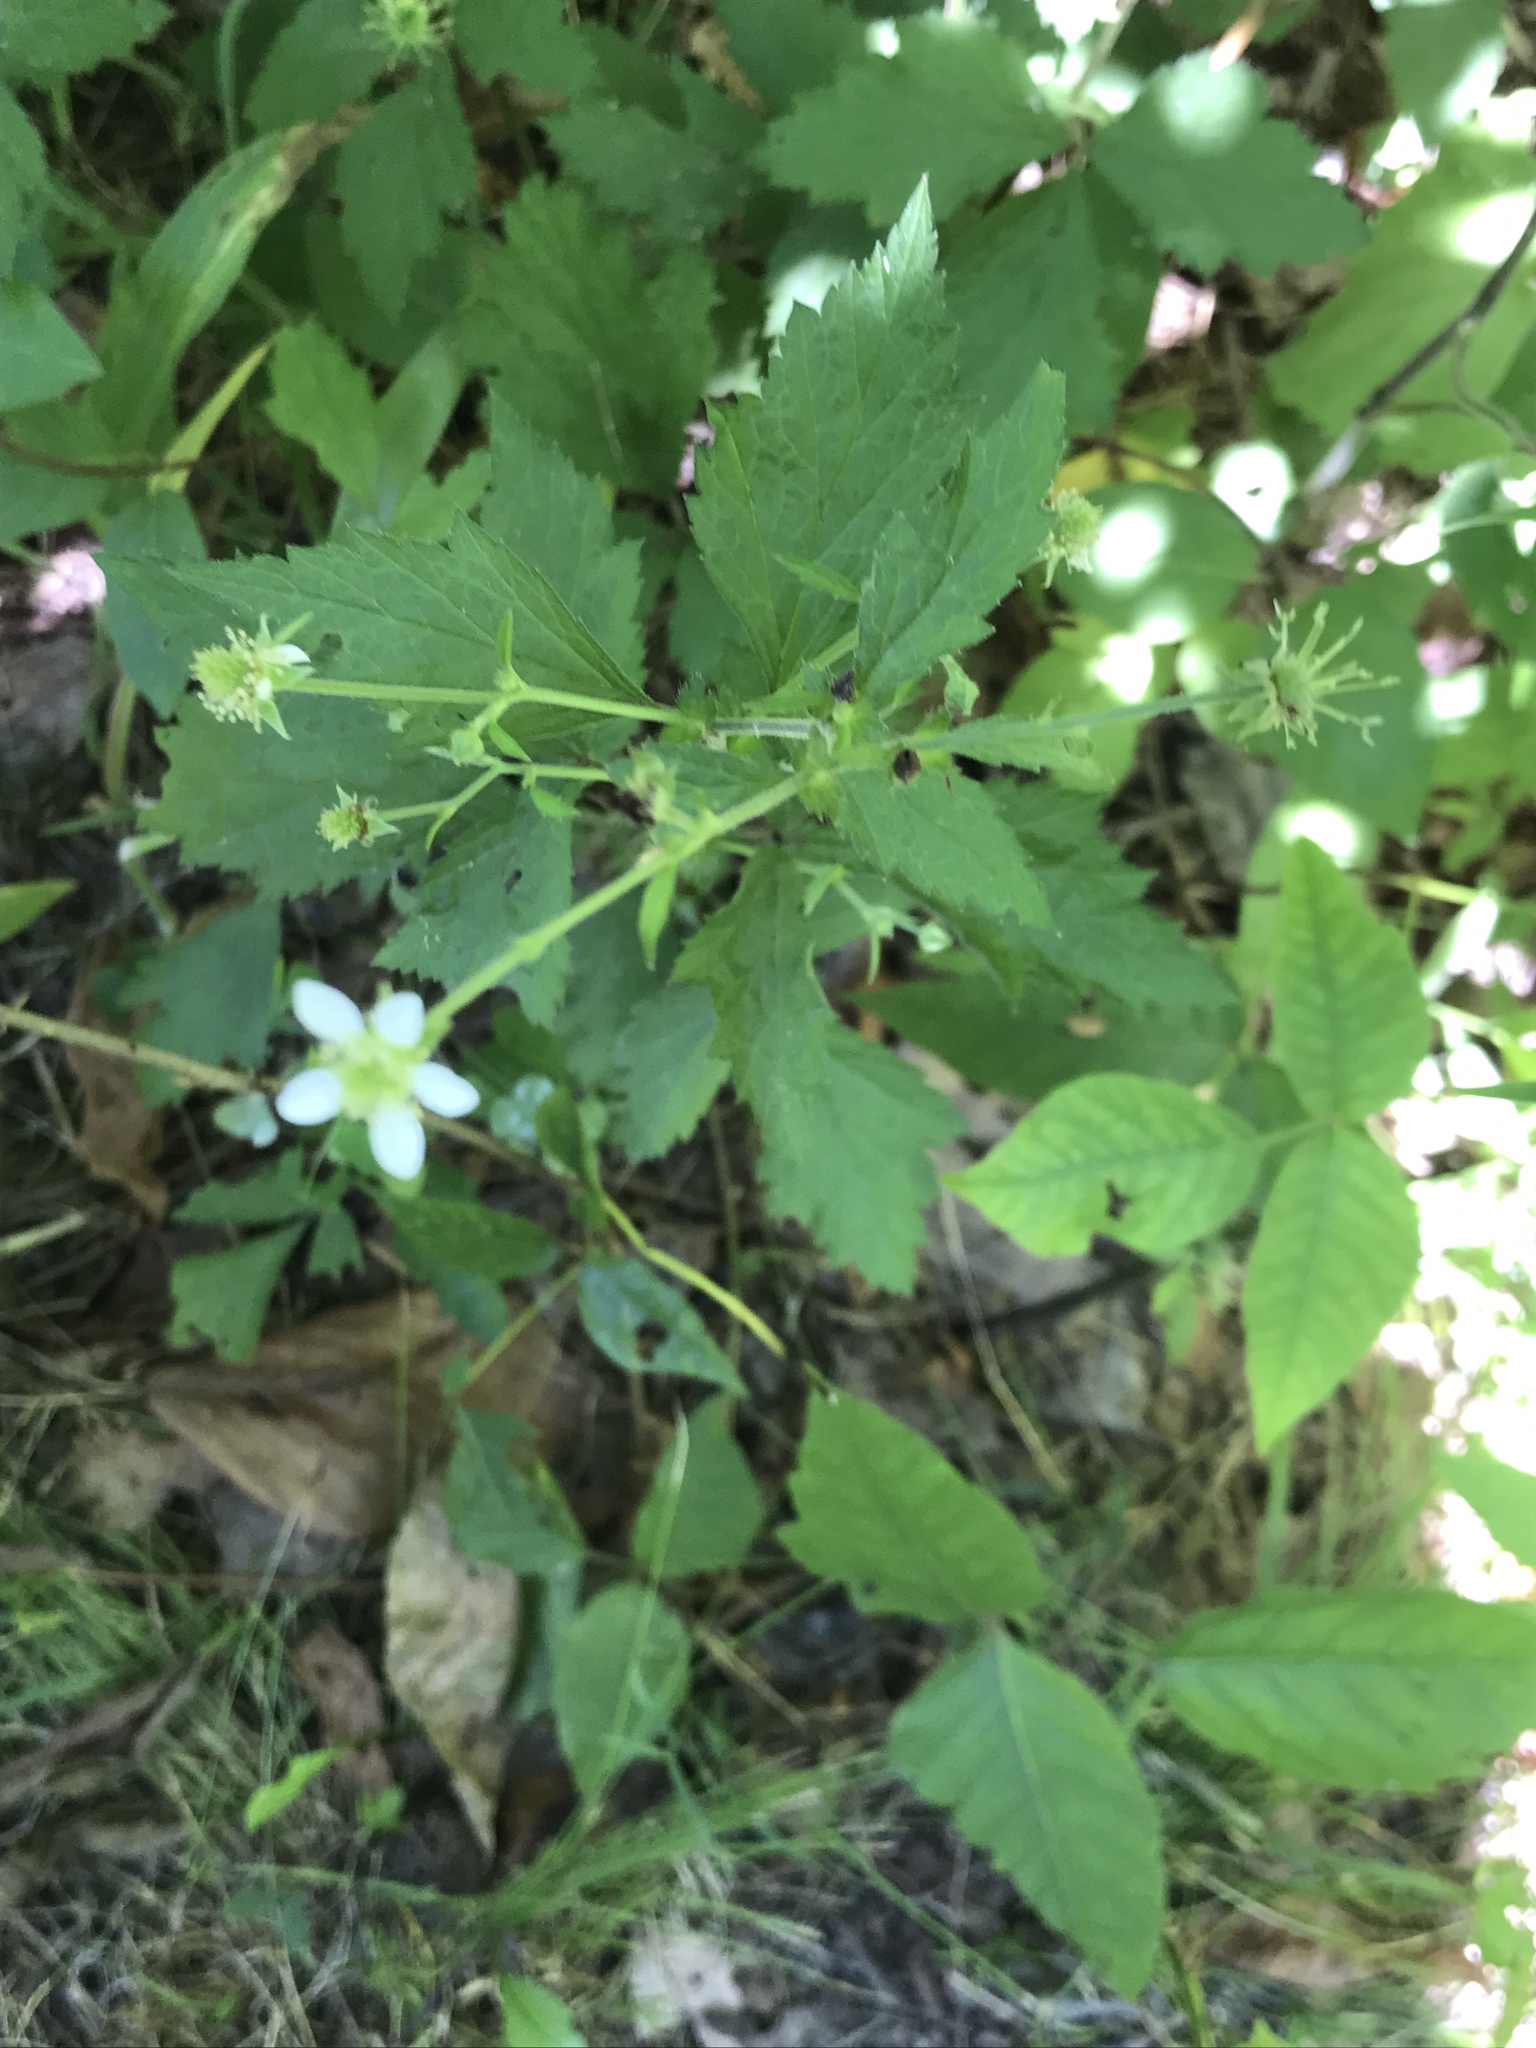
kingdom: Plantae
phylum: Tracheophyta
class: Magnoliopsida
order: Rosales
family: Rosaceae
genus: Geum
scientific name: Geum canadense
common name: White avens
